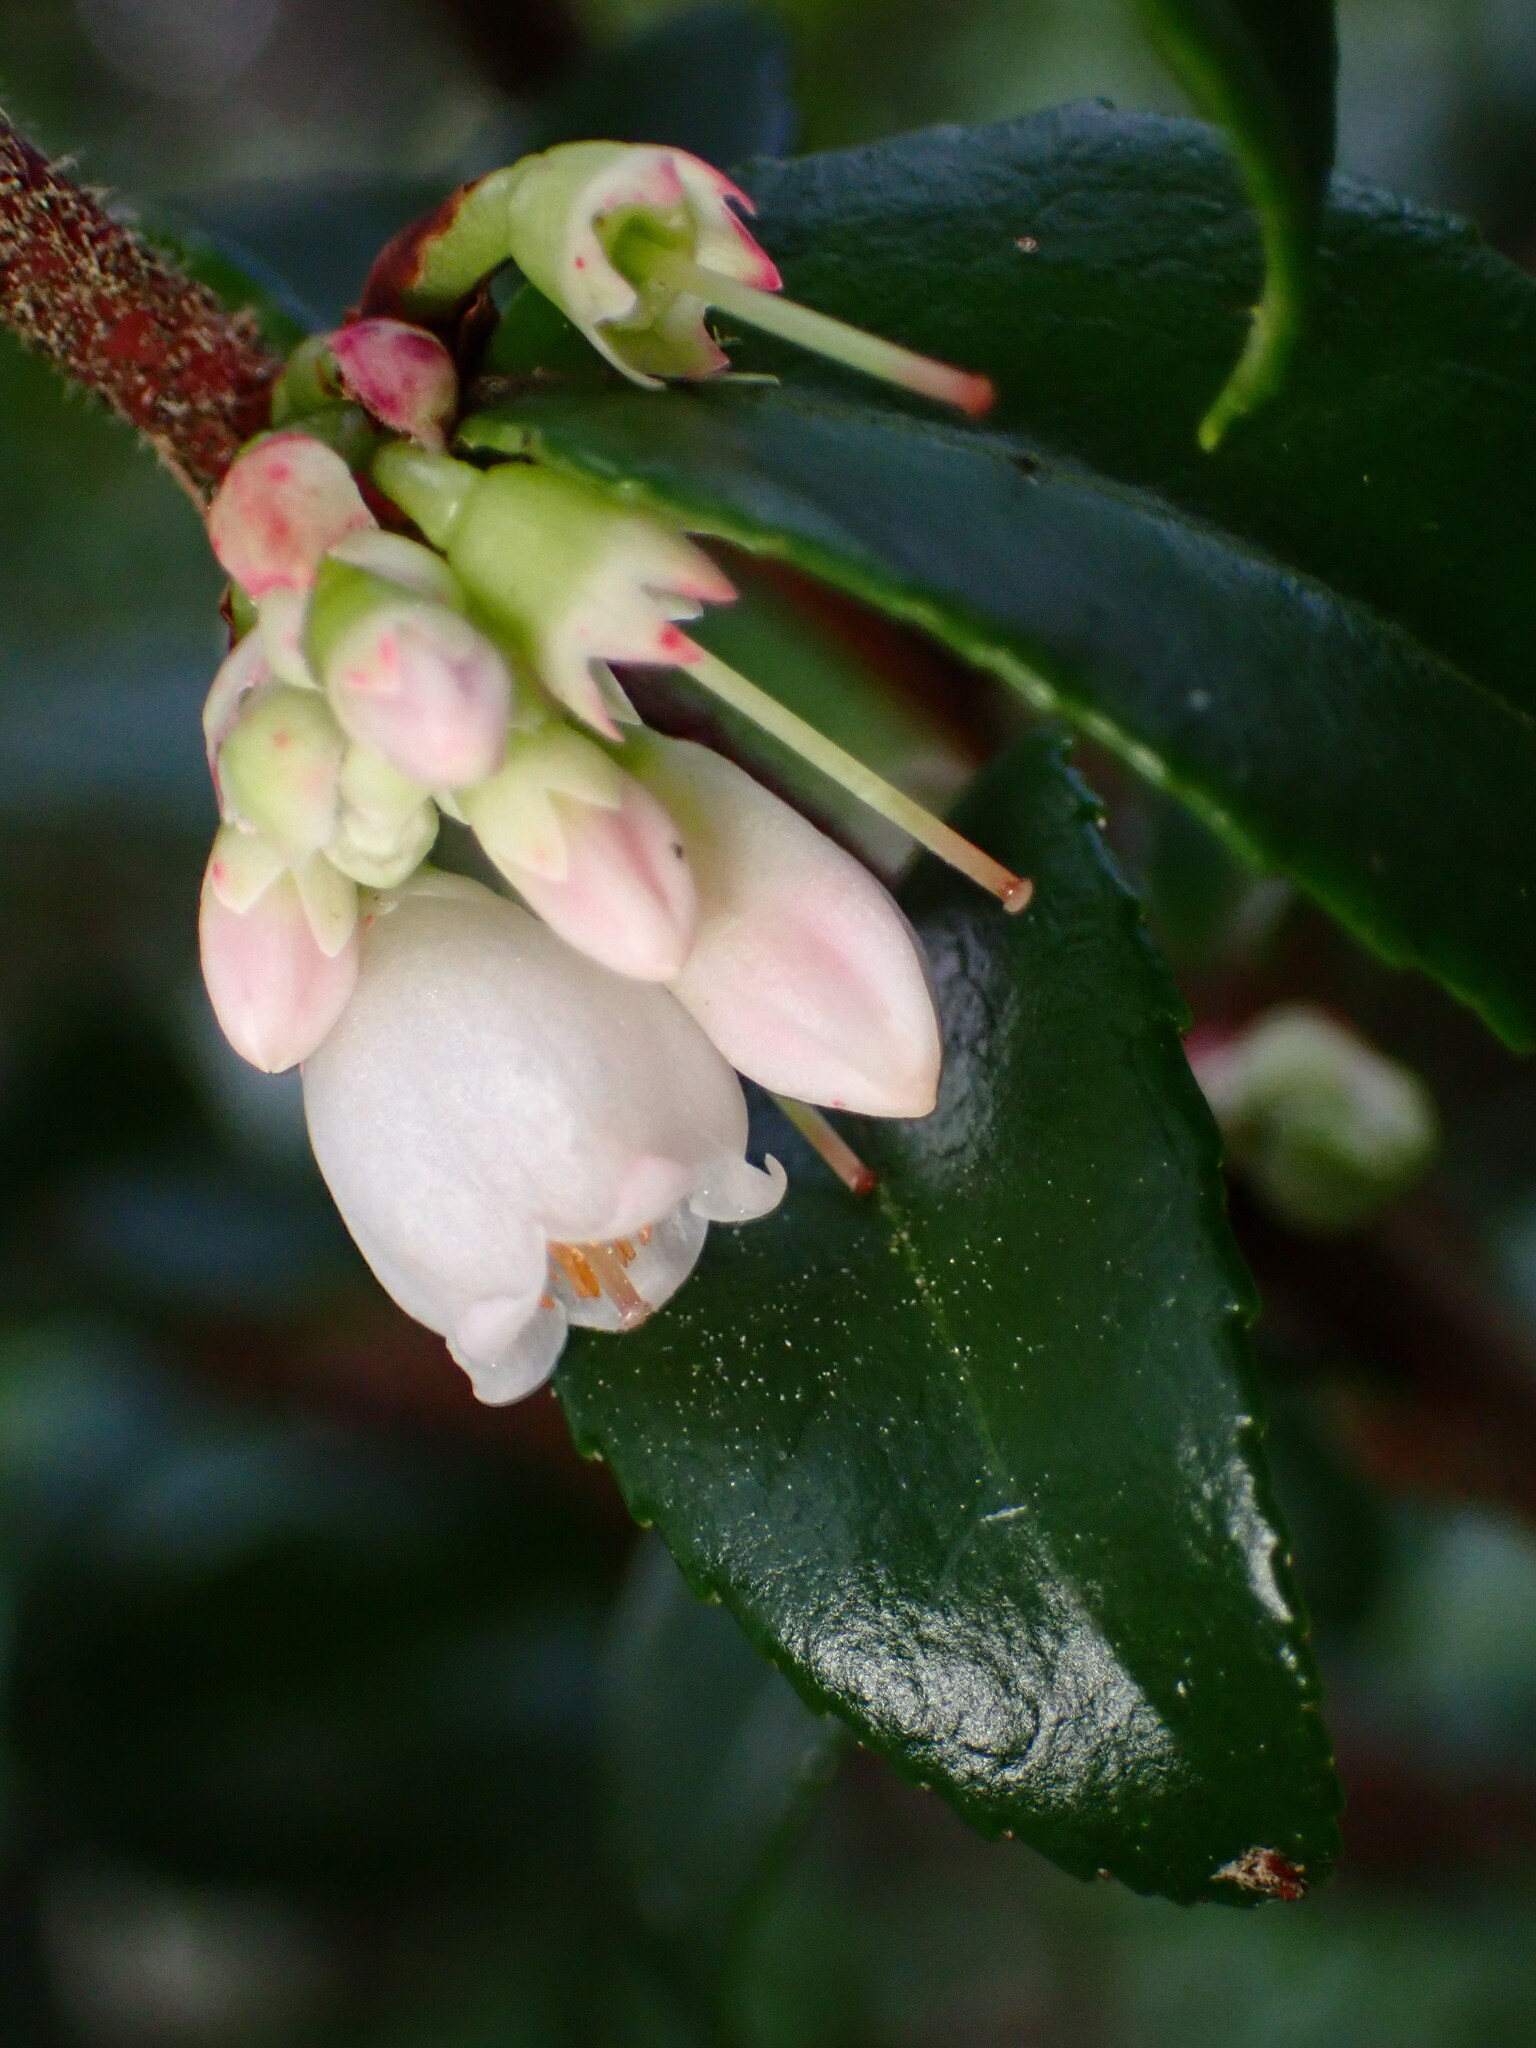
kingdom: Plantae
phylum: Tracheophyta
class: Magnoliopsida
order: Ericales
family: Ericaceae
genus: Vaccinium
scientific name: Vaccinium ovatum
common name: California-huckleberry
